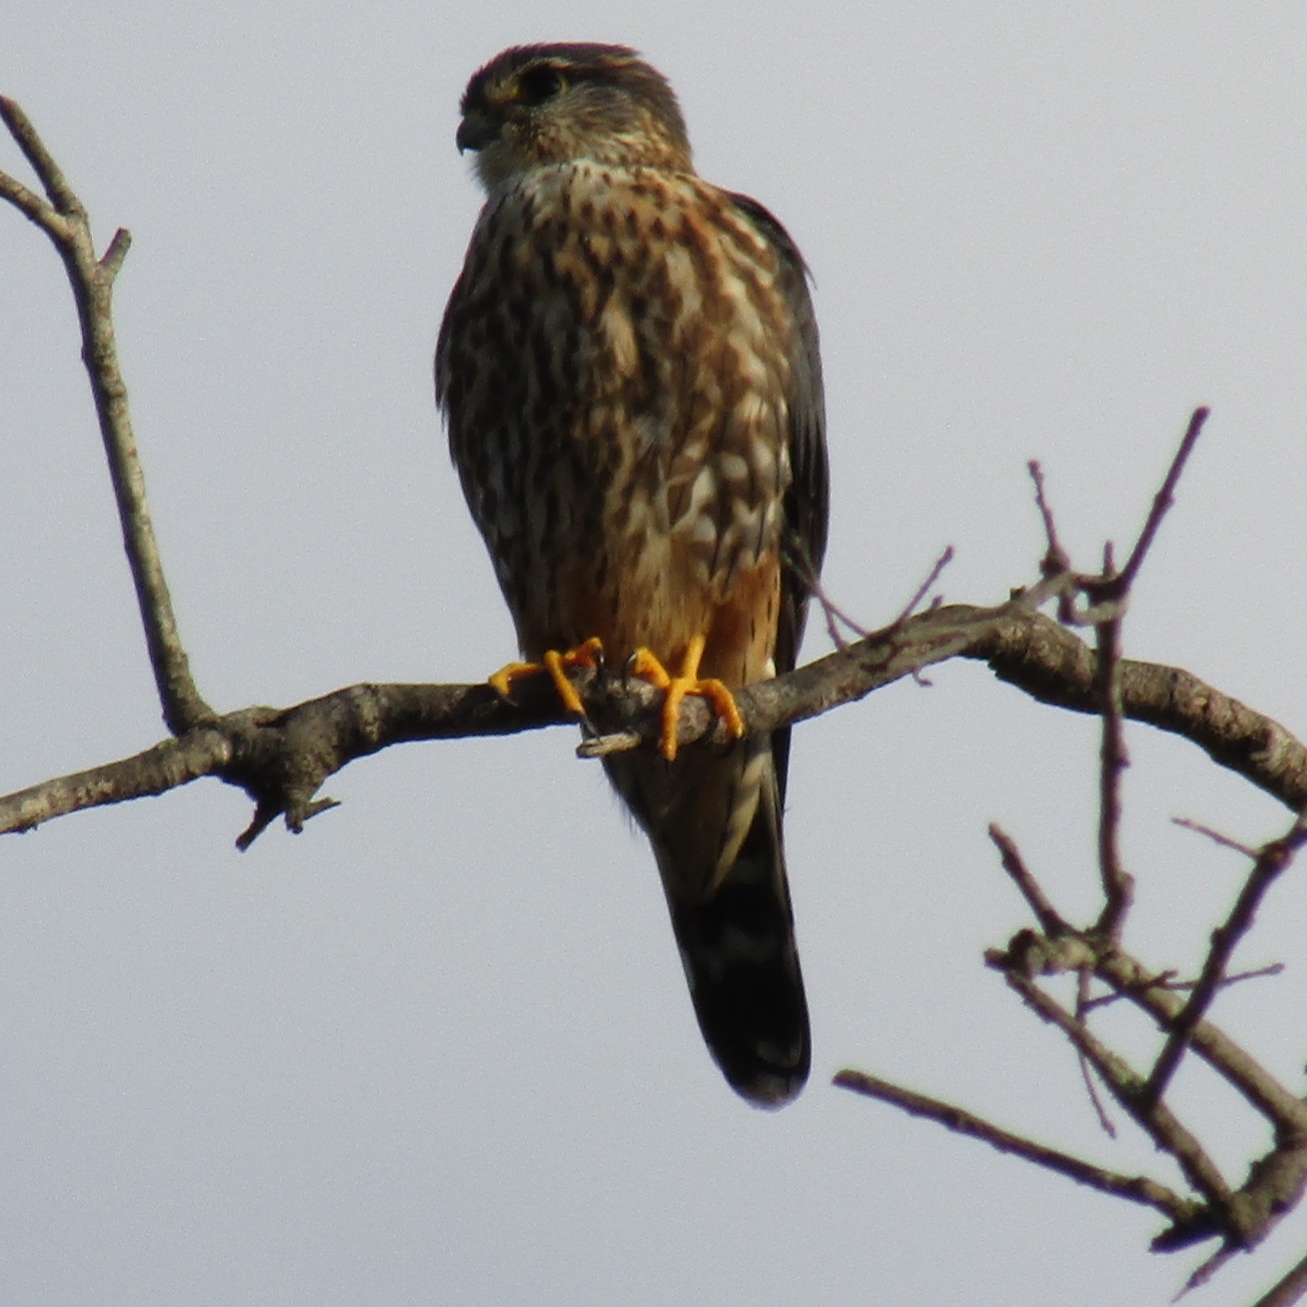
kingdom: Animalia
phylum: Chordata
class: Aves
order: Falconiformes
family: Falconidae
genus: Falco
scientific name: Falco columbarius
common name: Merlin
